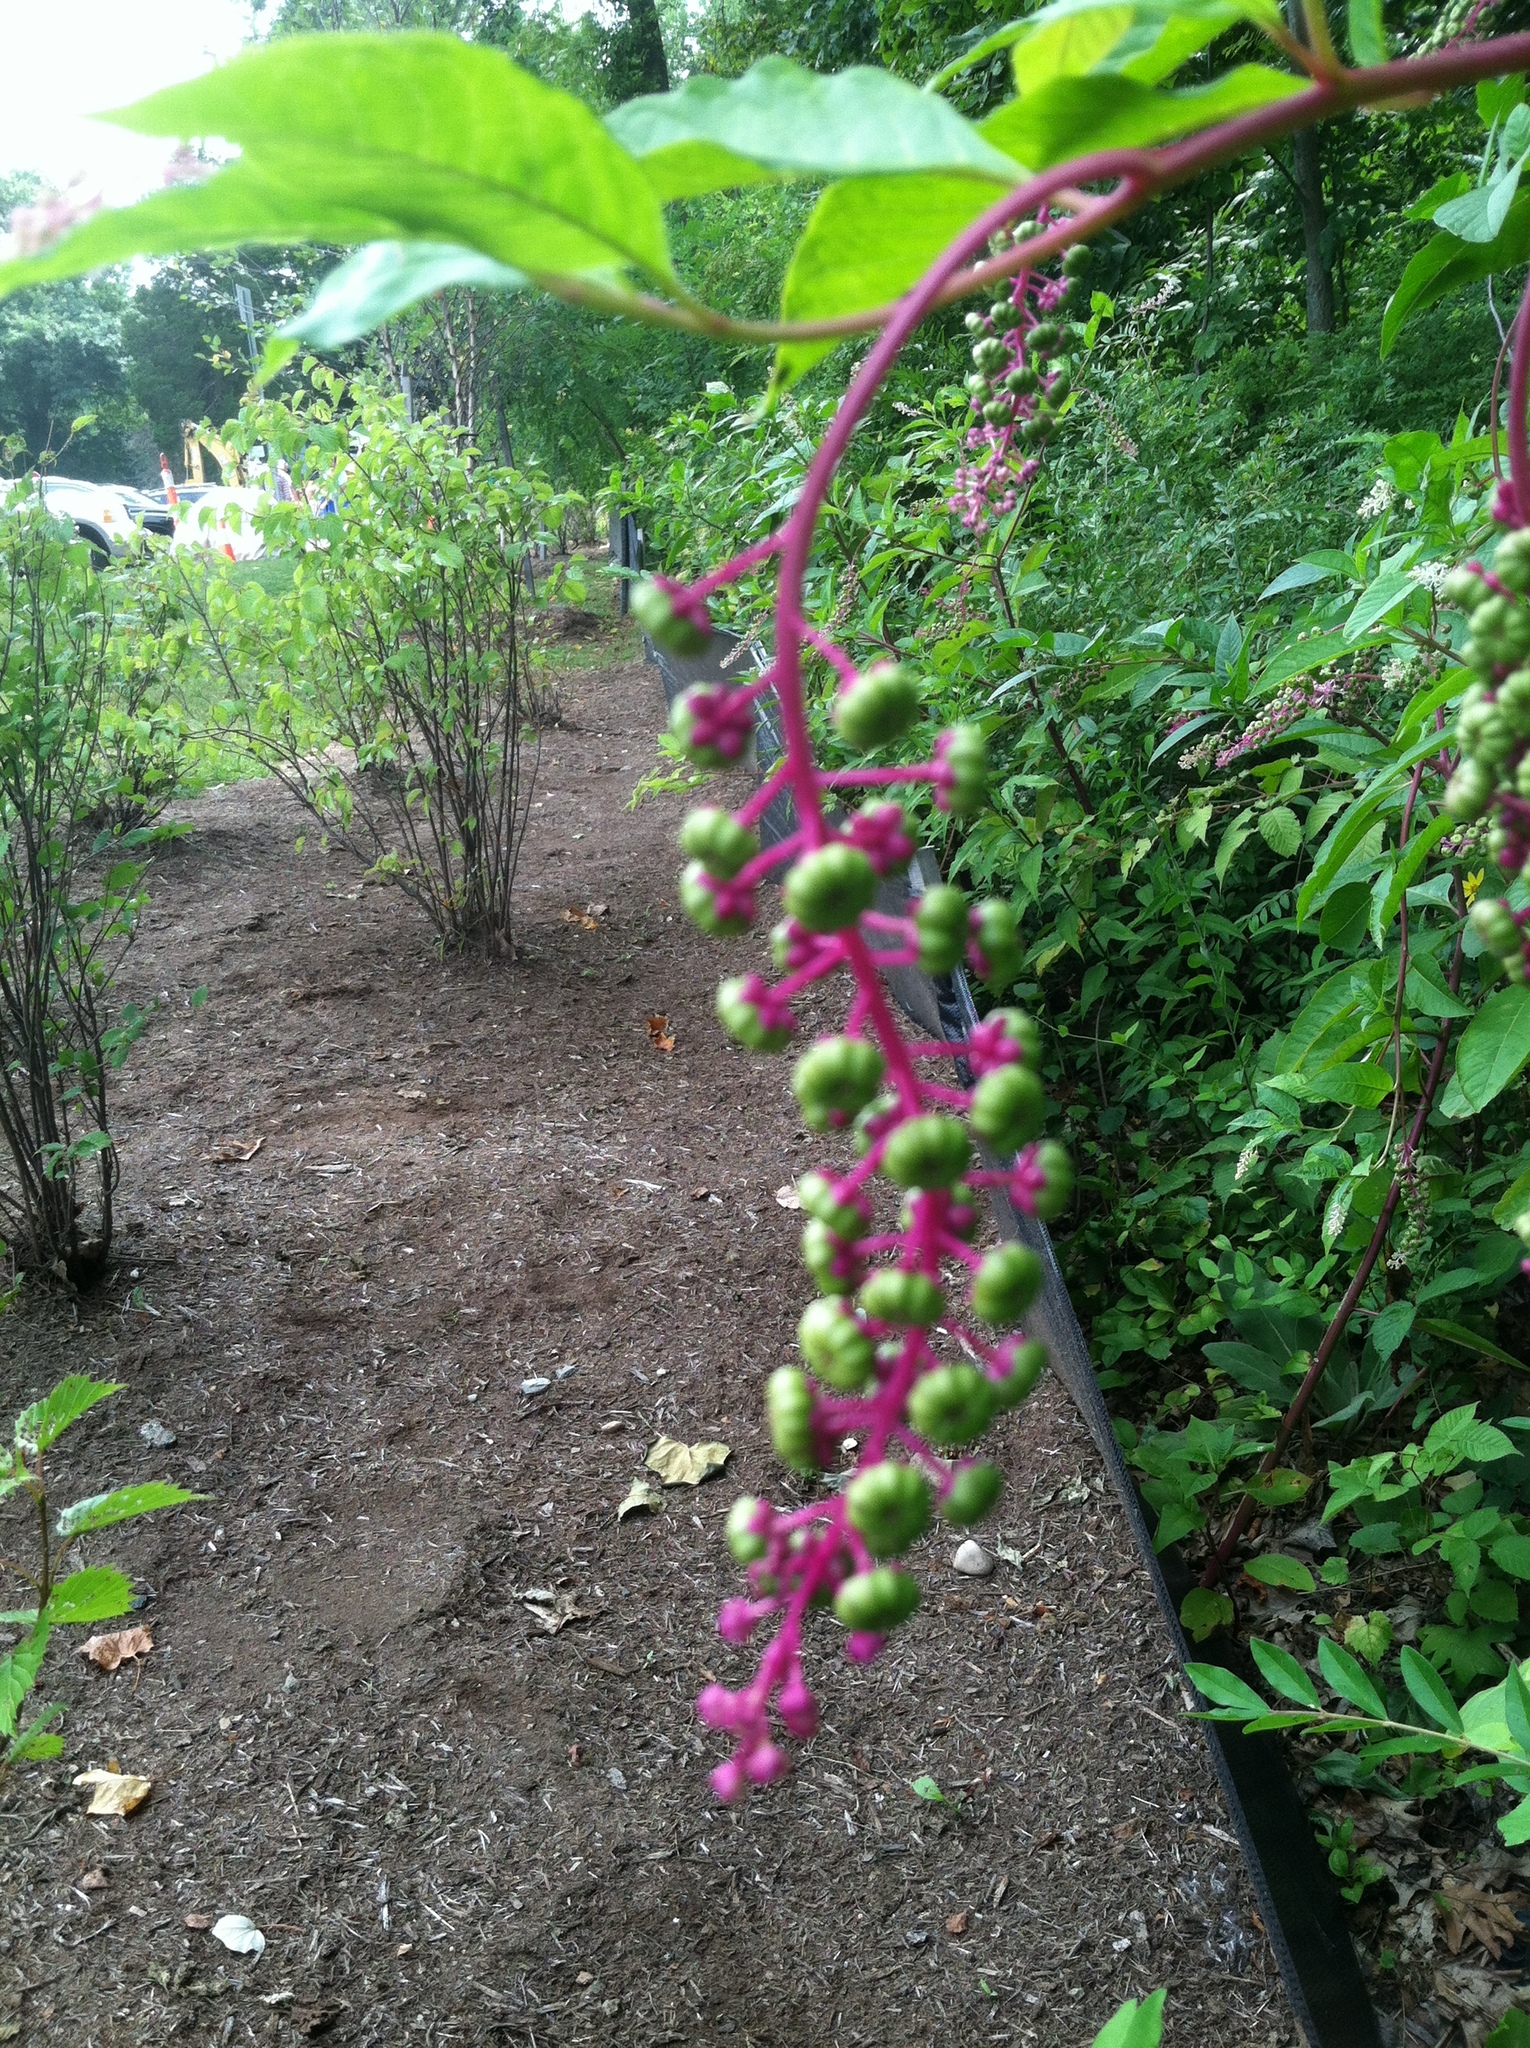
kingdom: Plantae
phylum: Tracheophyta
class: Magnoliopsida
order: Caryophyllales
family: Phytolaccaceae
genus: Phytolacca
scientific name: Phytolacca americana
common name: American pokeweed
